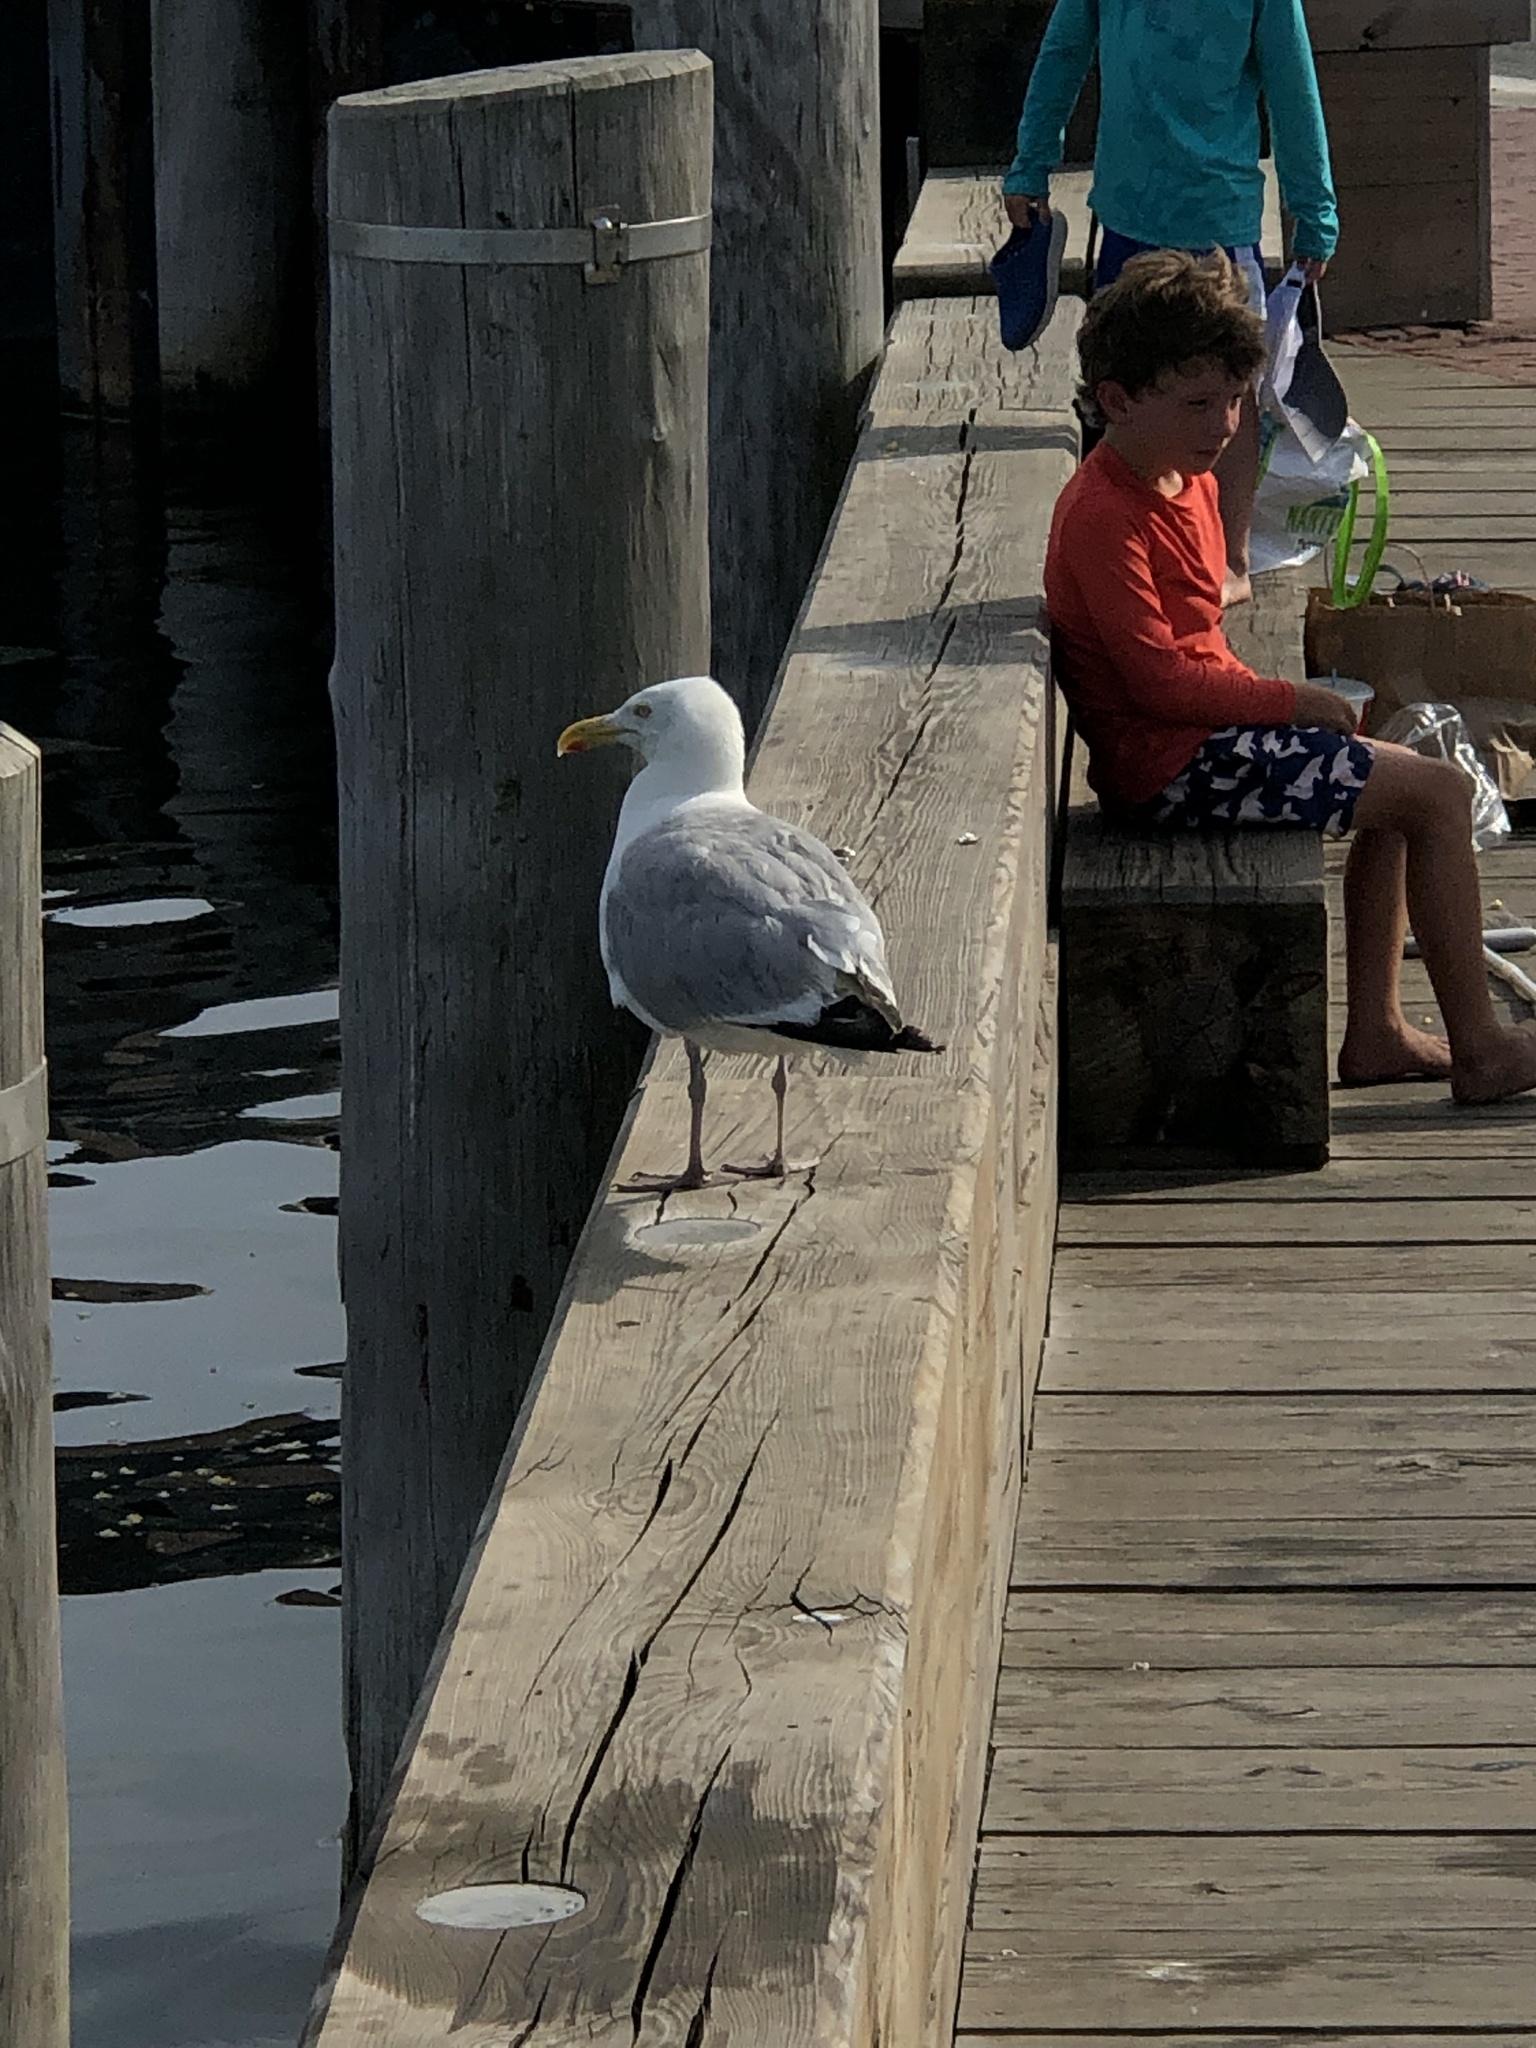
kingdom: Animalia
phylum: Chordata
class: Aves
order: Charadriiformes
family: Laridae
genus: Larus
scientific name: Larus argentatus
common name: Herring gull
